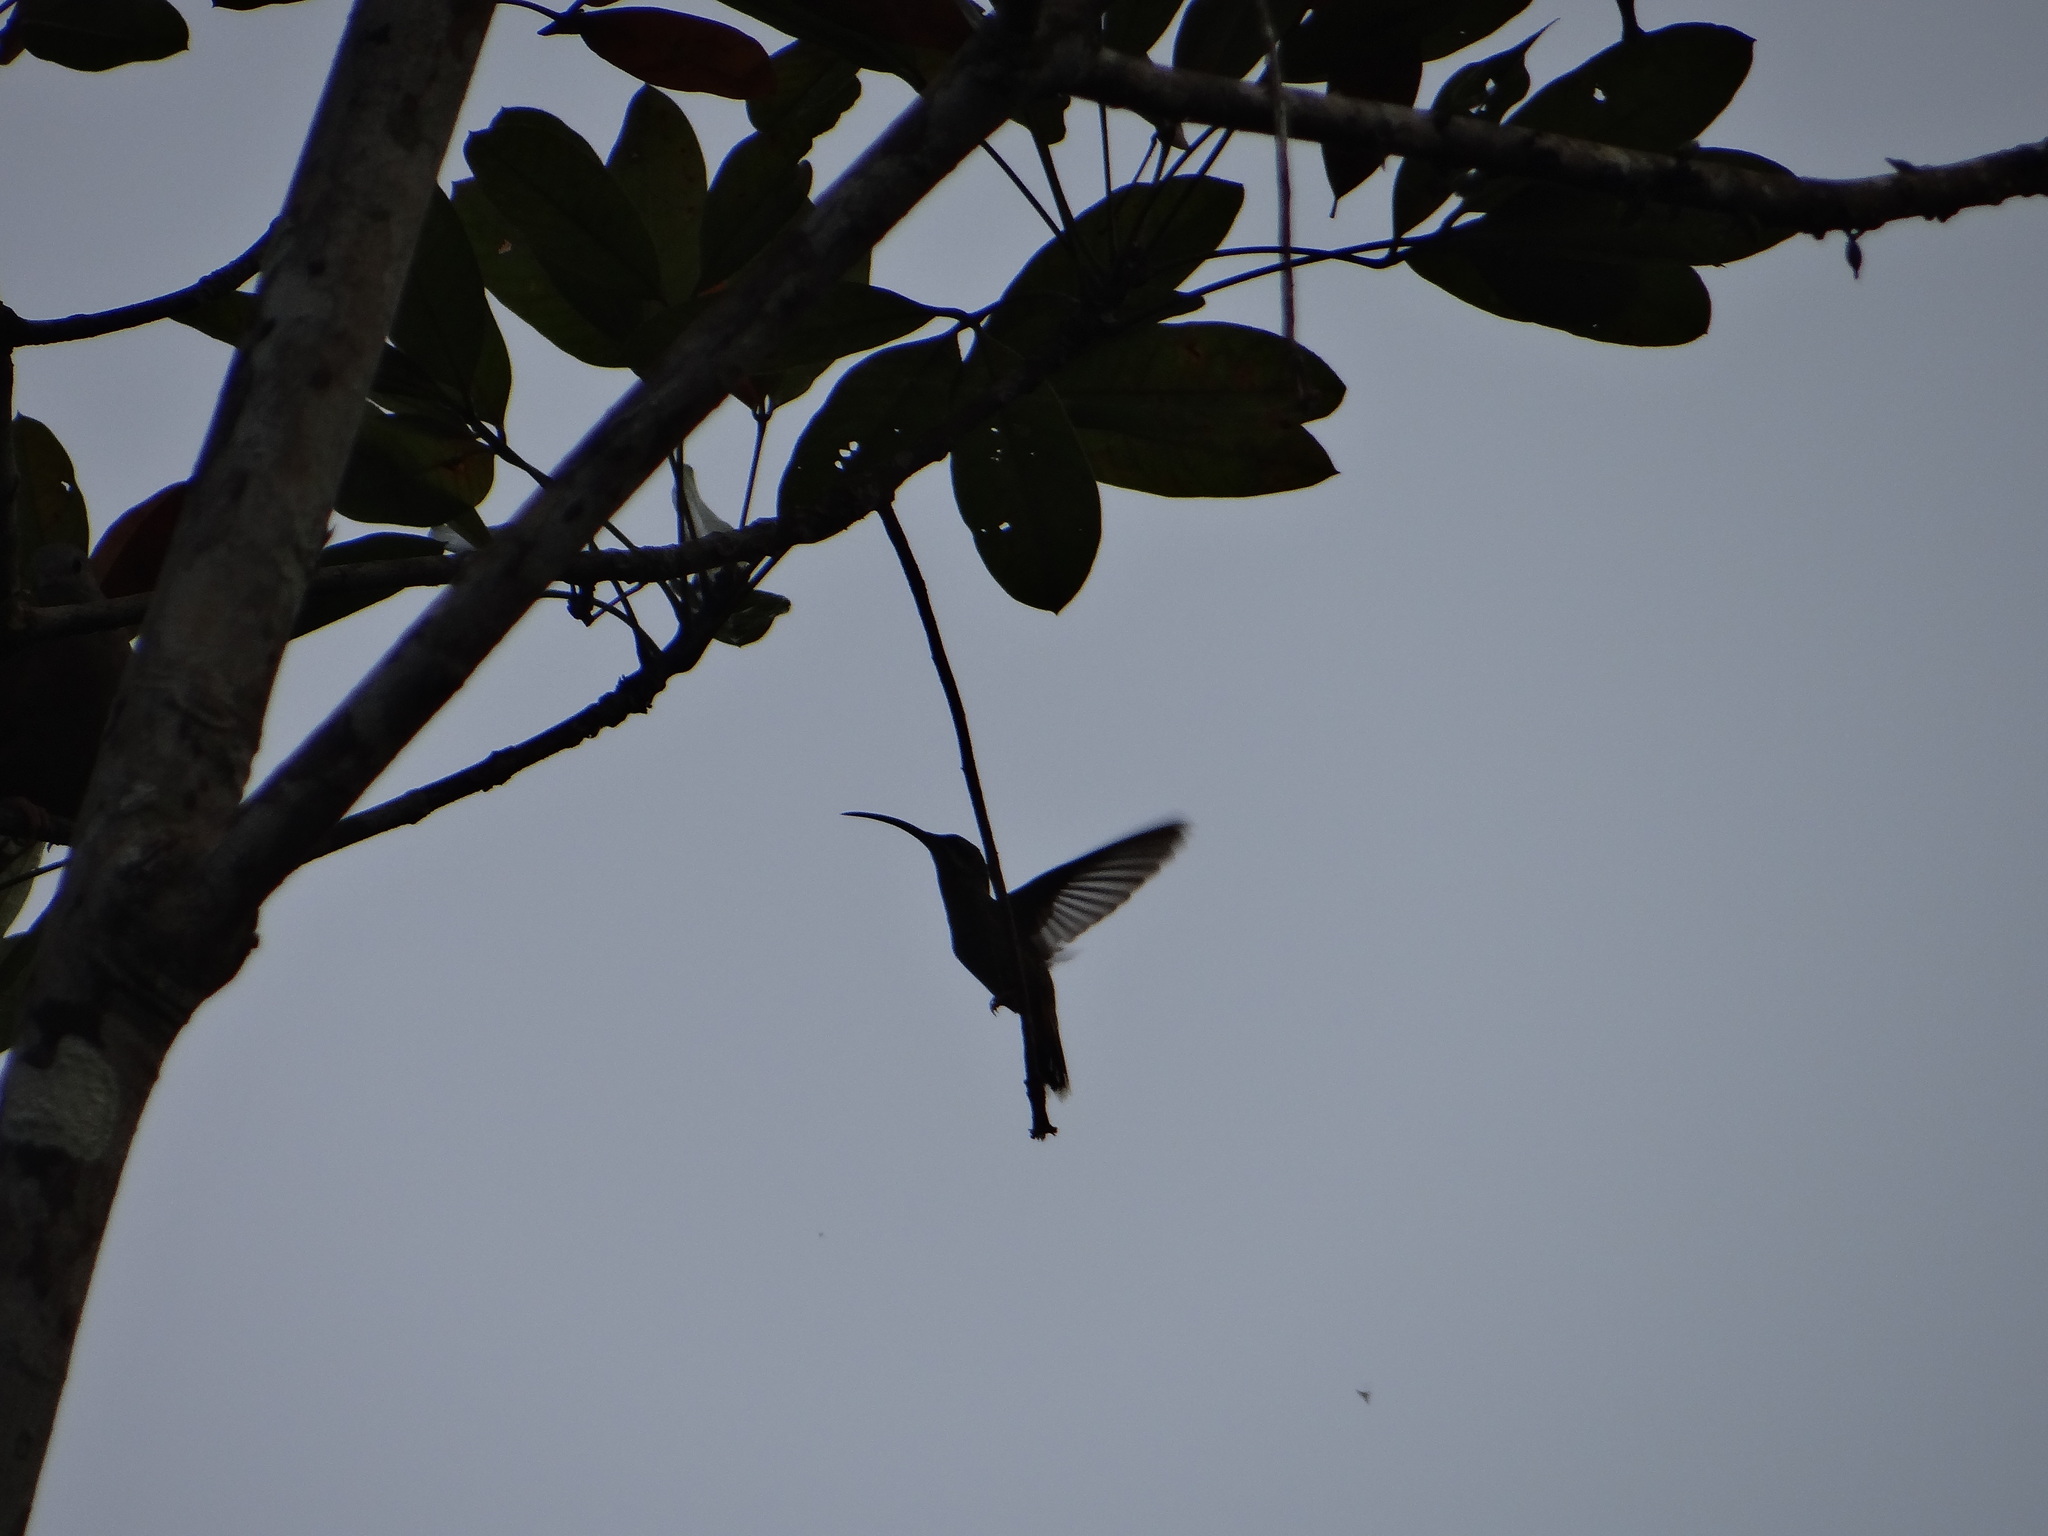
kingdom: Animalia
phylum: Chordata
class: Aves
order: Apodiformes
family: Trochilidae
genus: Threnetes
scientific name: Threnetes leucurus
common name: Pale-tailed barbthroat
